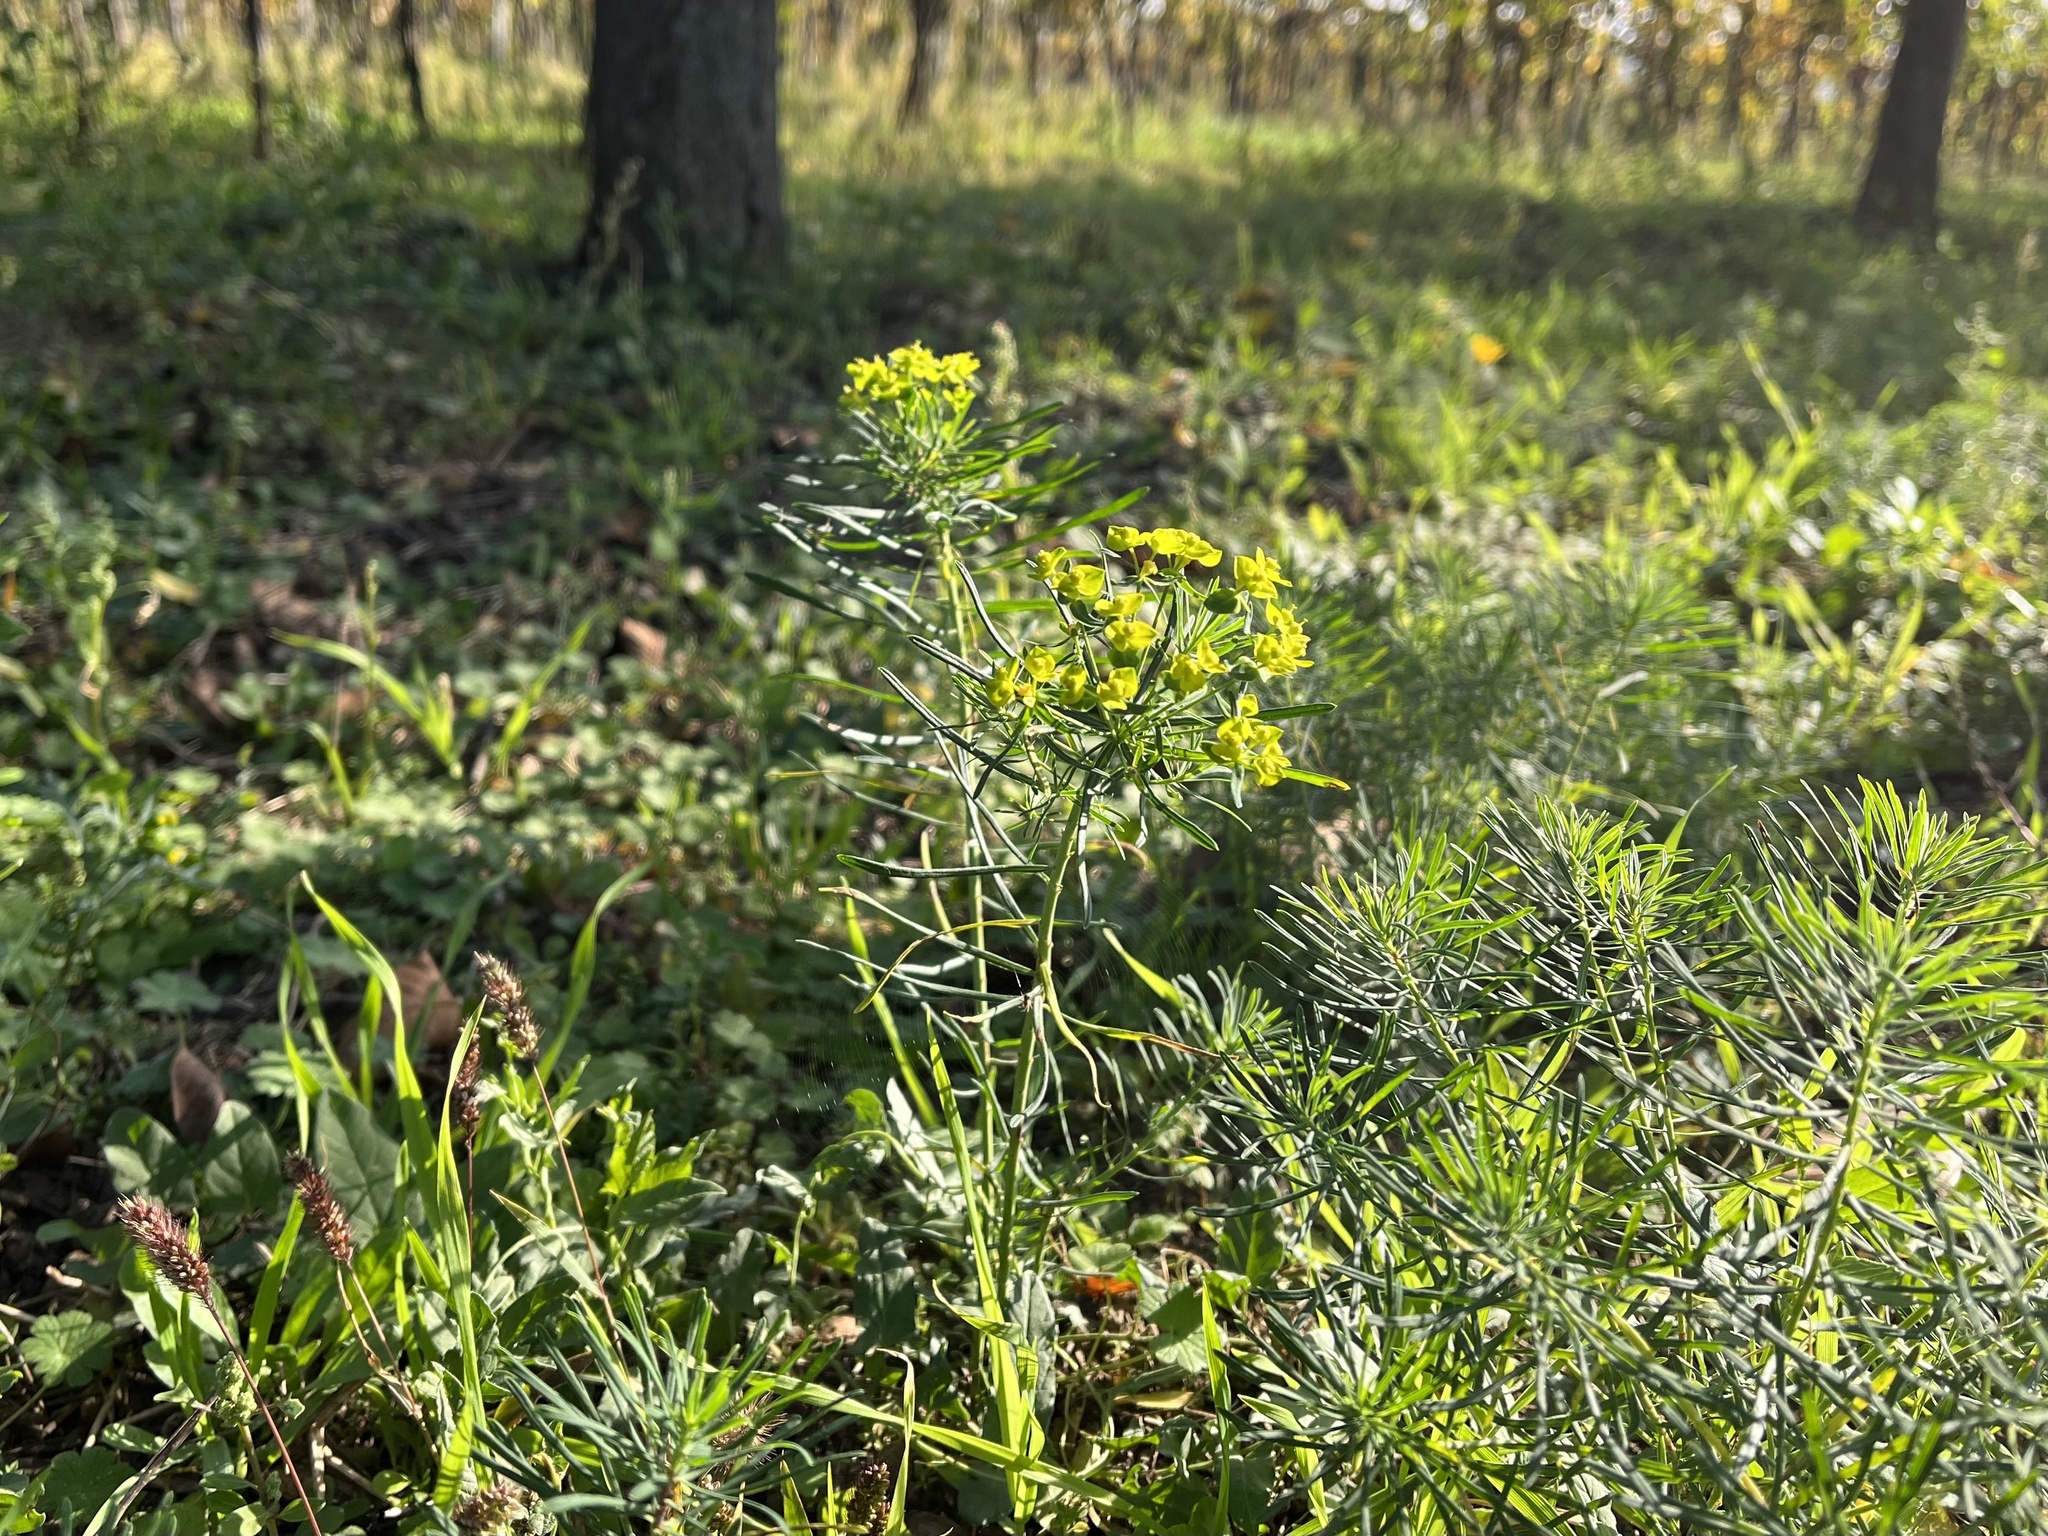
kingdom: Plantae
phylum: Tracheophyta
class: Magnoliopsida
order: Malpighiales
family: Euphorbiaceae
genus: Euphorbia
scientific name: Euphorbia cyparissias
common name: Cypress spurge
